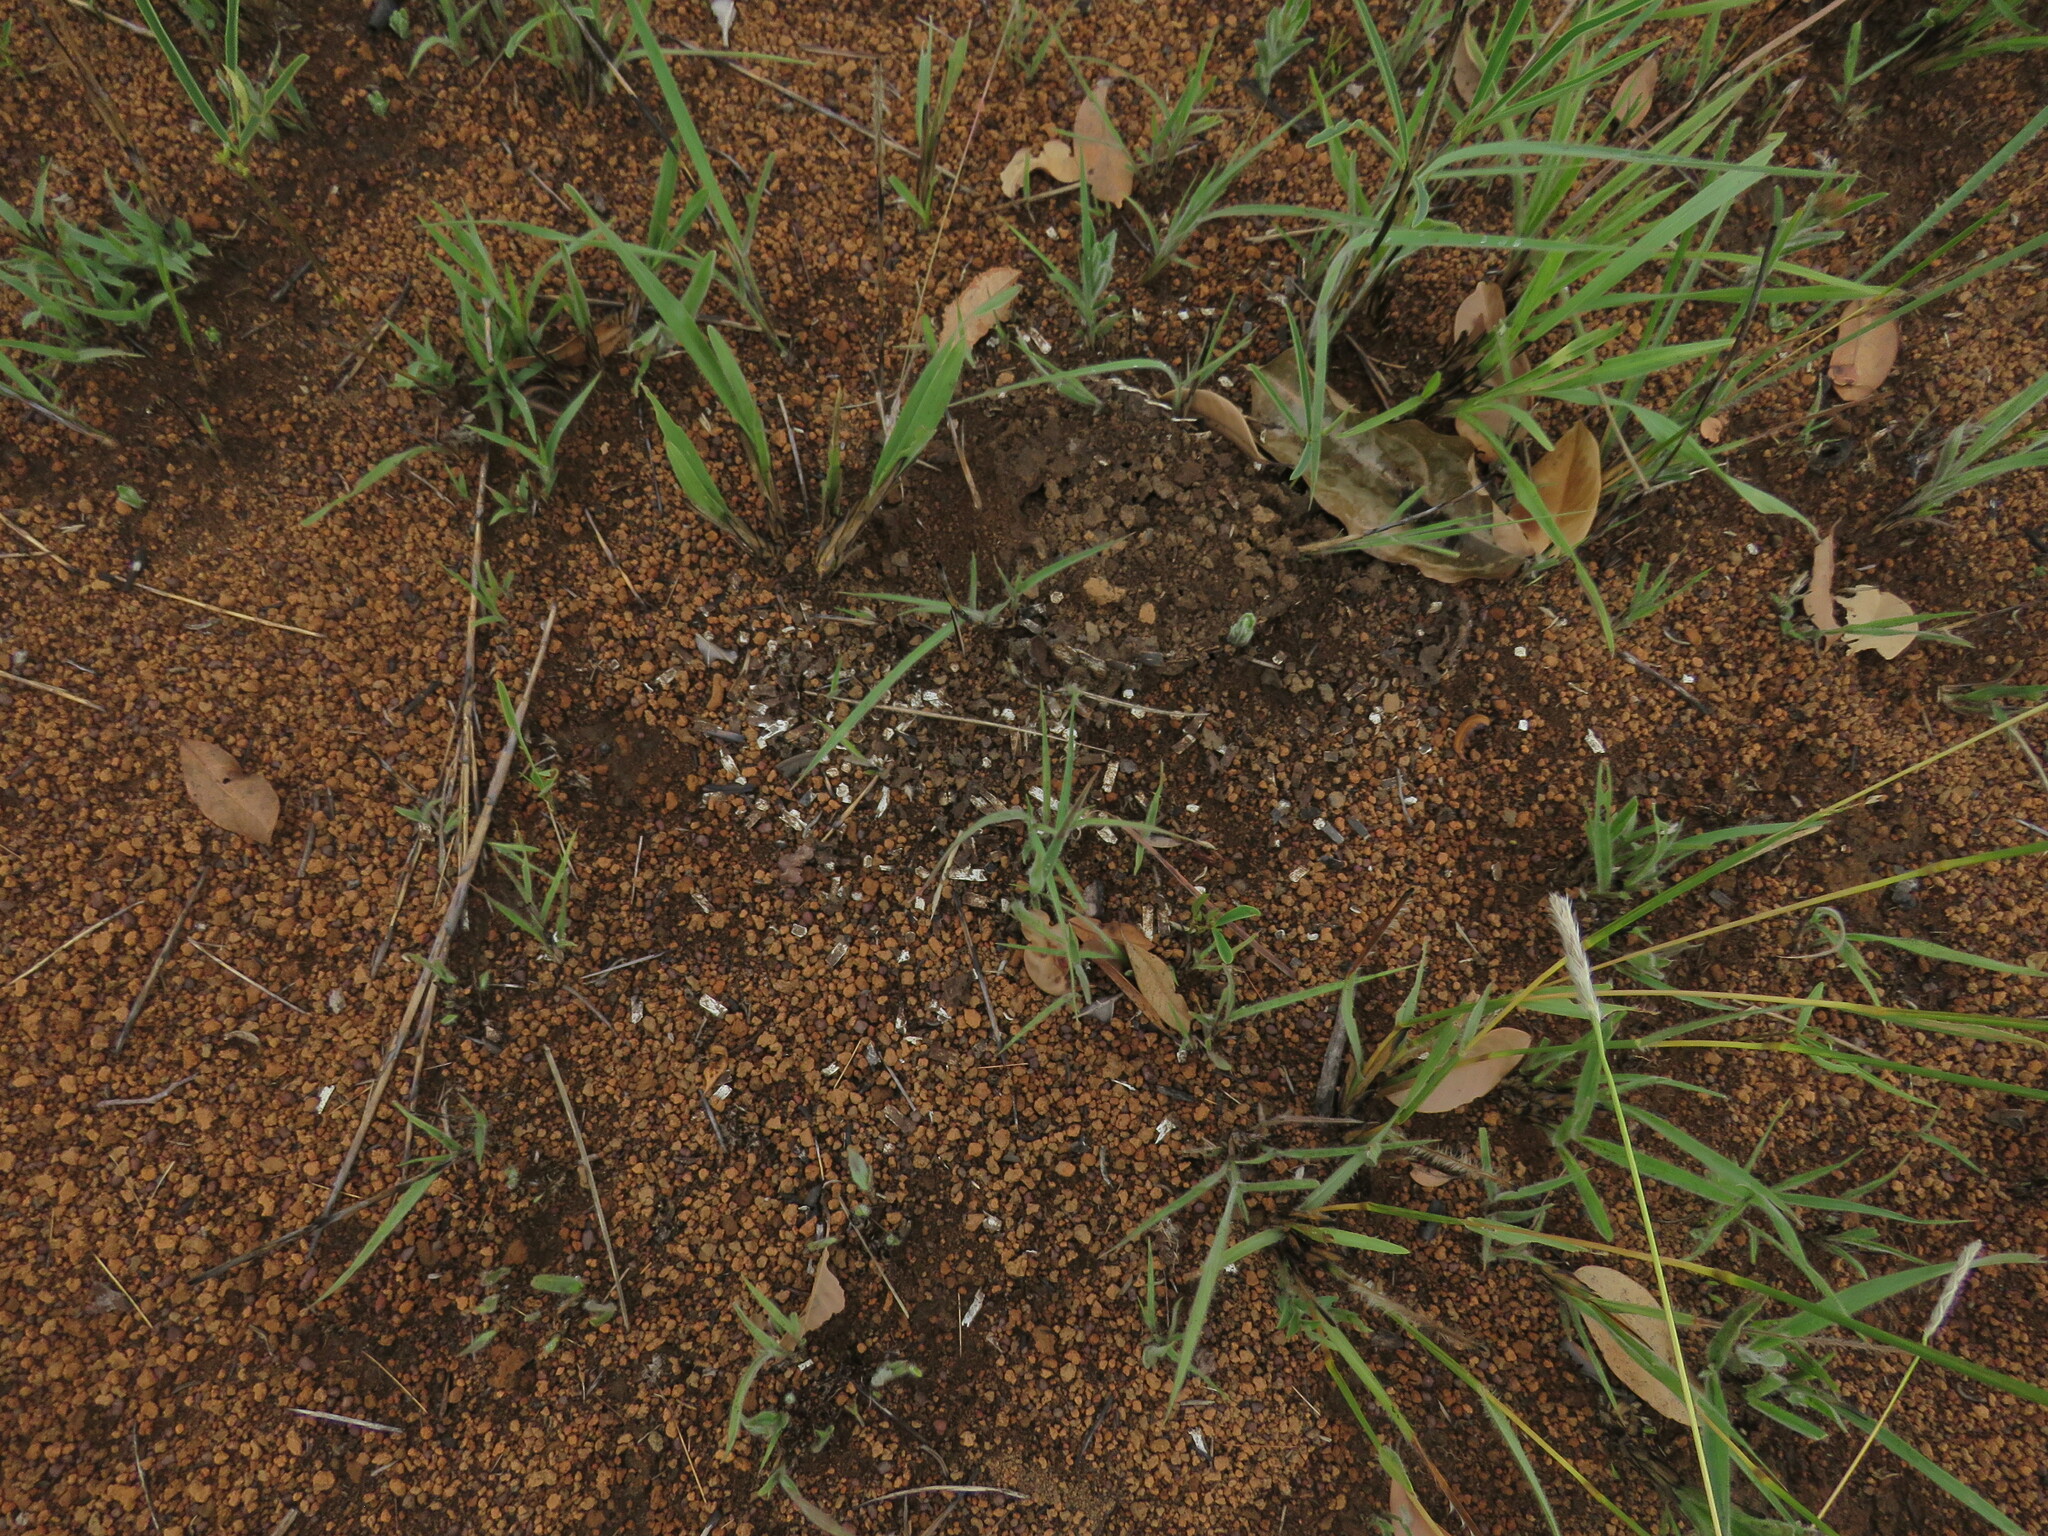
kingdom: Animalia
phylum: Chordata
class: Mammalia
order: Cingulata
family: Dasypodidae
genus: Euphractus
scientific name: Euphractus sexcinctus
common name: Six-banded armadillo
